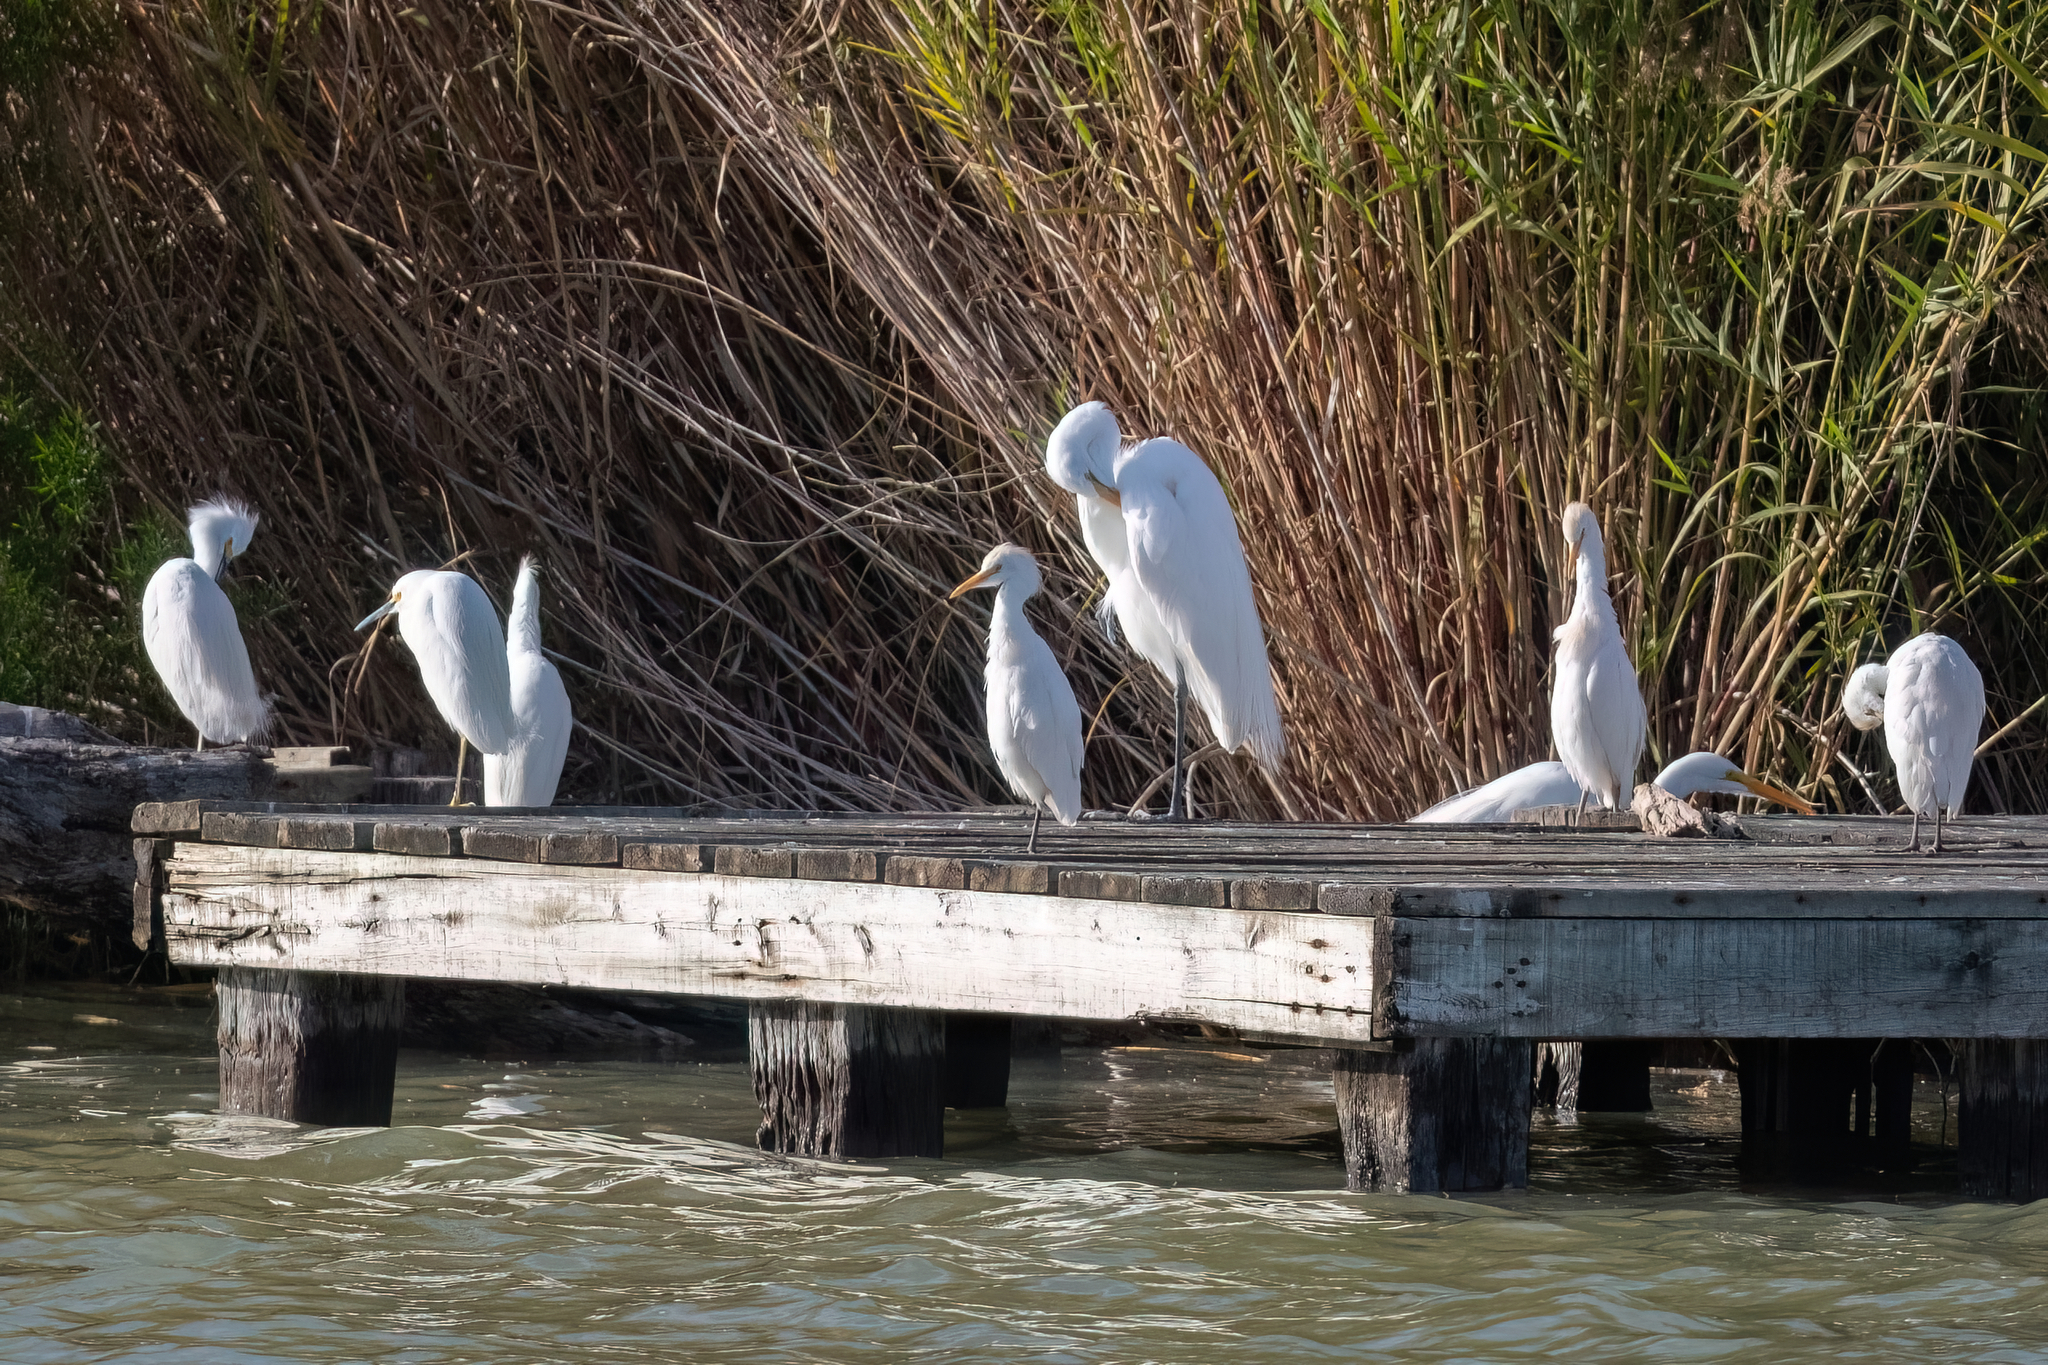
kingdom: Animalia
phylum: Chordata
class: Aves
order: Pelecaniformes
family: Ardeidae
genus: Bubulcus
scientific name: Bubulcus ibis
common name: Cattle egret
